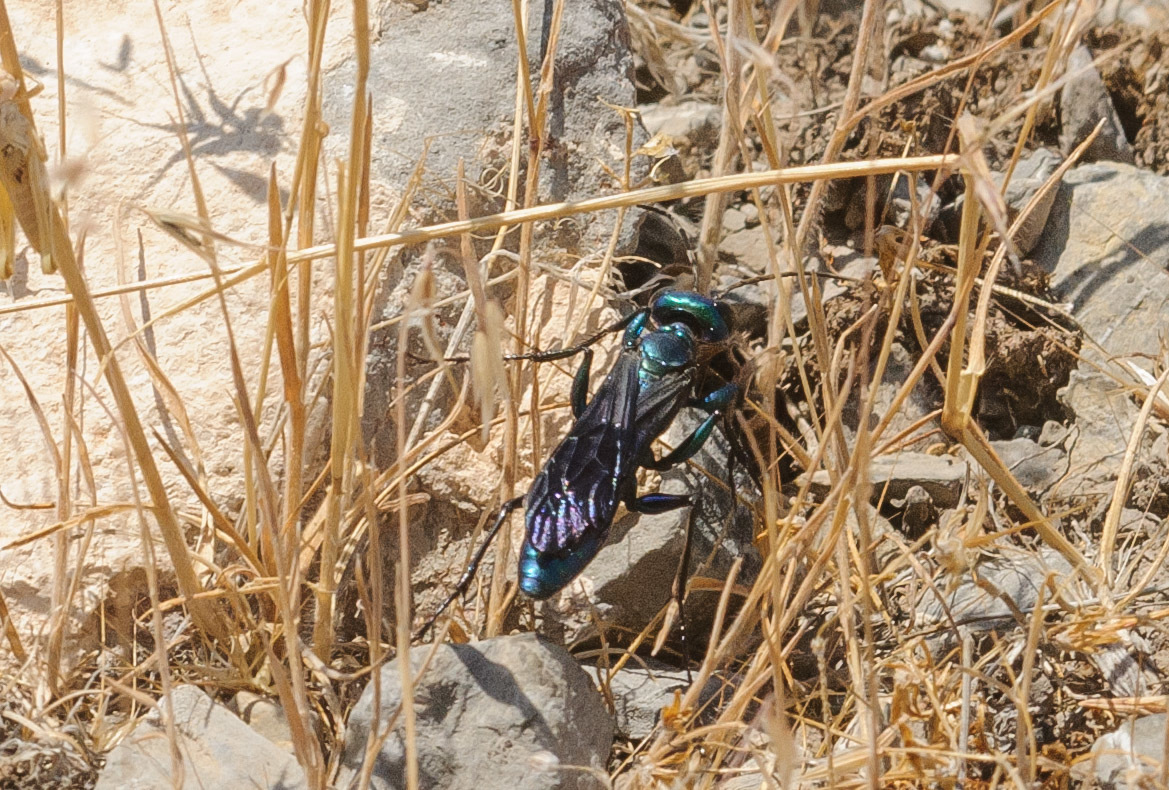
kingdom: Animalia
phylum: Arthropoda
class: Insecta
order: Hymenoptera
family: Sphecidae
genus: Chlorion
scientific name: Chlorion aerarium
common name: Steel-blue cricket hunter
